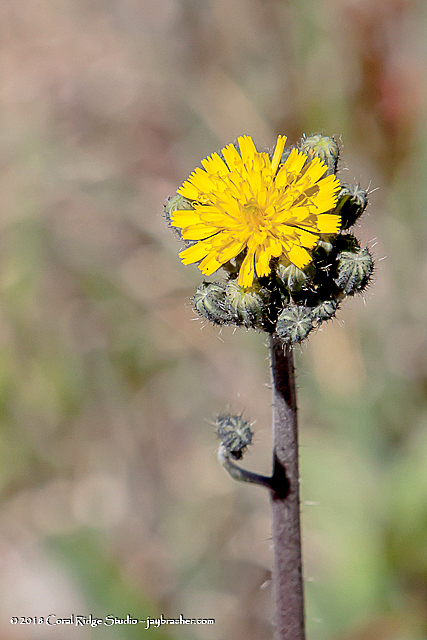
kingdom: Plantae
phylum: Tracheophyta
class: Magnoliopsida
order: Asterales
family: Asteraceae
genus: Pilosella
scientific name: Pilosella caespitosa
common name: Yellow fox-and-cubs
